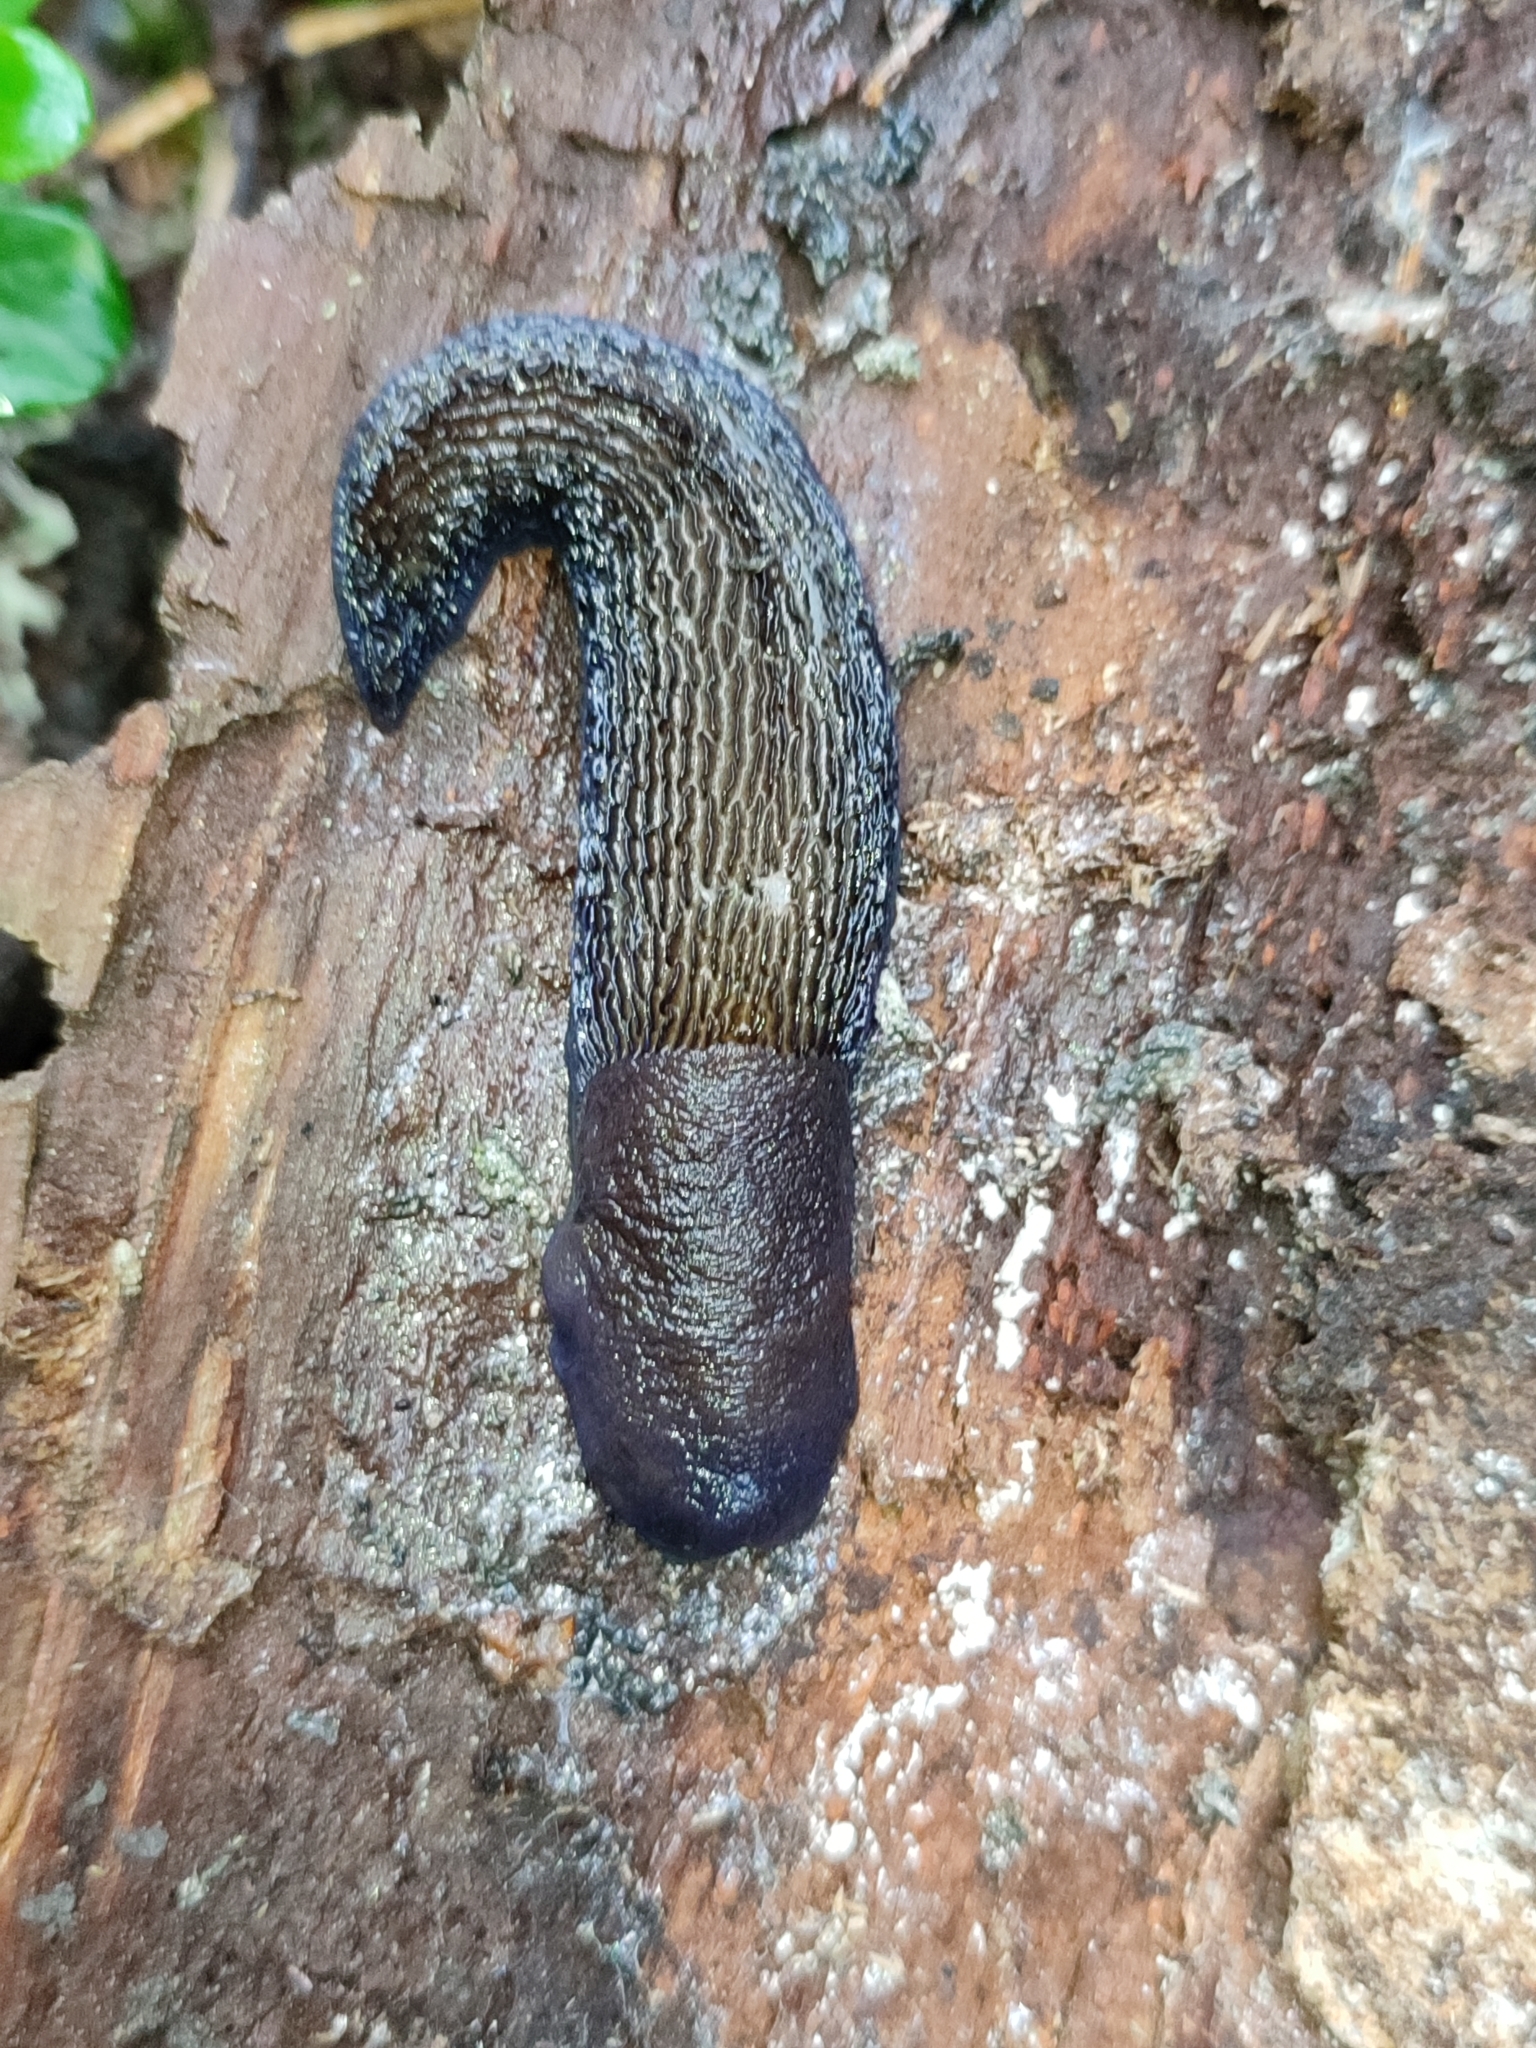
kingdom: Animalia
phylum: Mollusca
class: Gastropoda
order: Stylommatophora
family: Limacidae
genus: Bielzia
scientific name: Bielzia coerulans
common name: Carpathian blue slug
